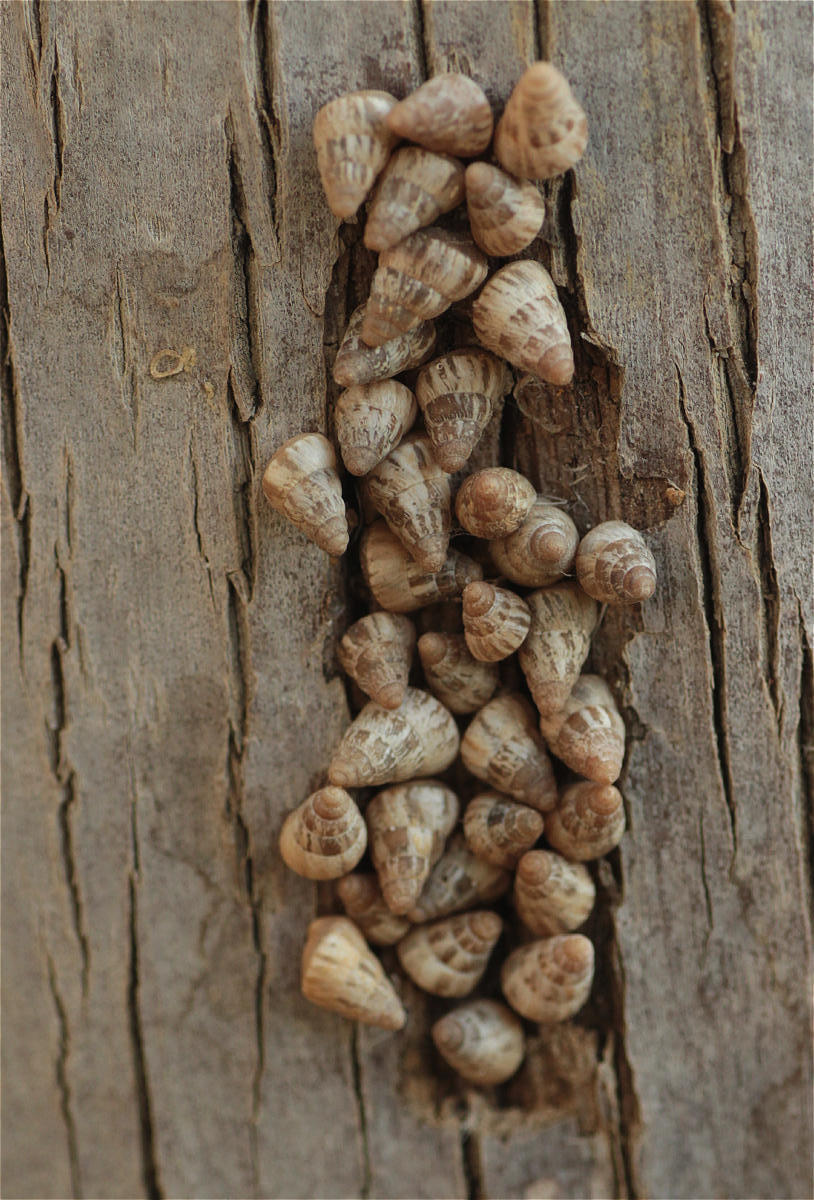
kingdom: Animalia
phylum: Mollusca
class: Gastropoda
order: Stylommatophora
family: Geomitridae
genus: Cochlicella
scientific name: Cochlicella barbara
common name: Potbellied helicellid
